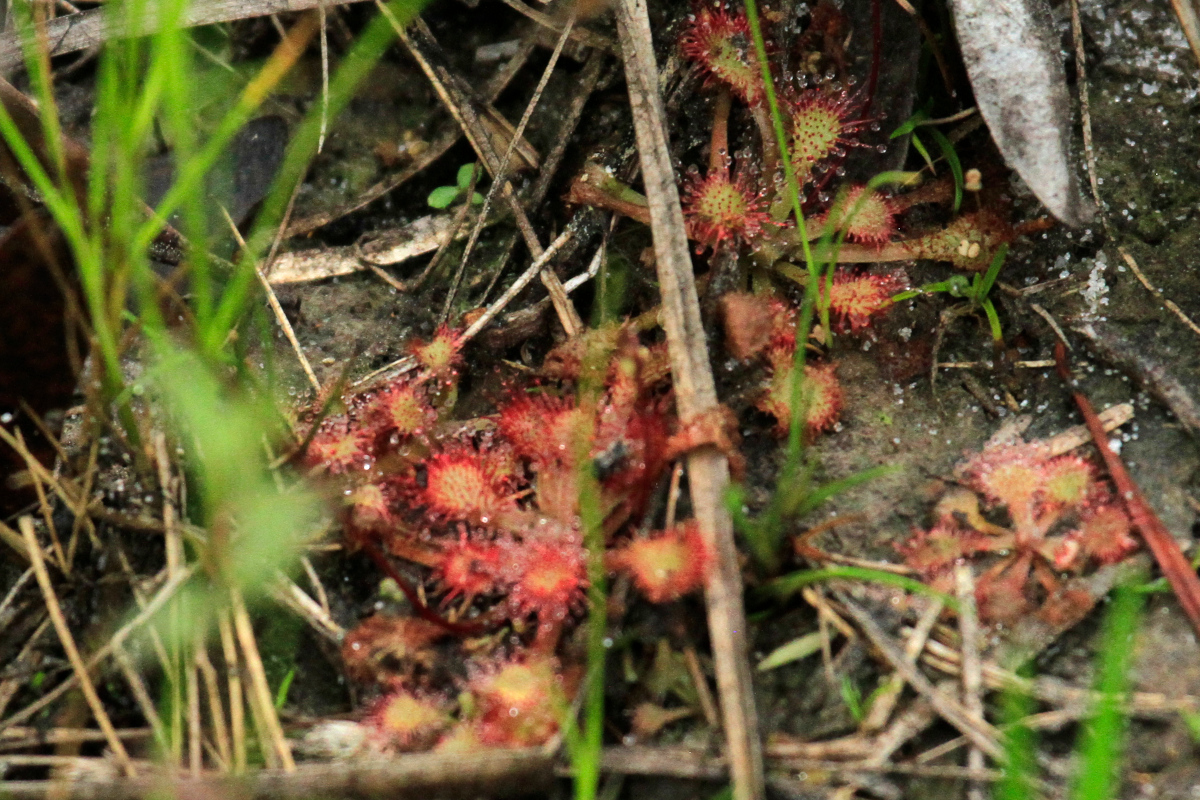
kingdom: Plantae
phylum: Tracheophyta
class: Magnoliopsida
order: Caryophyllales
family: Droseraceae
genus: Drosera
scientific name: Drosera capillaris
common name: Pink sundew
